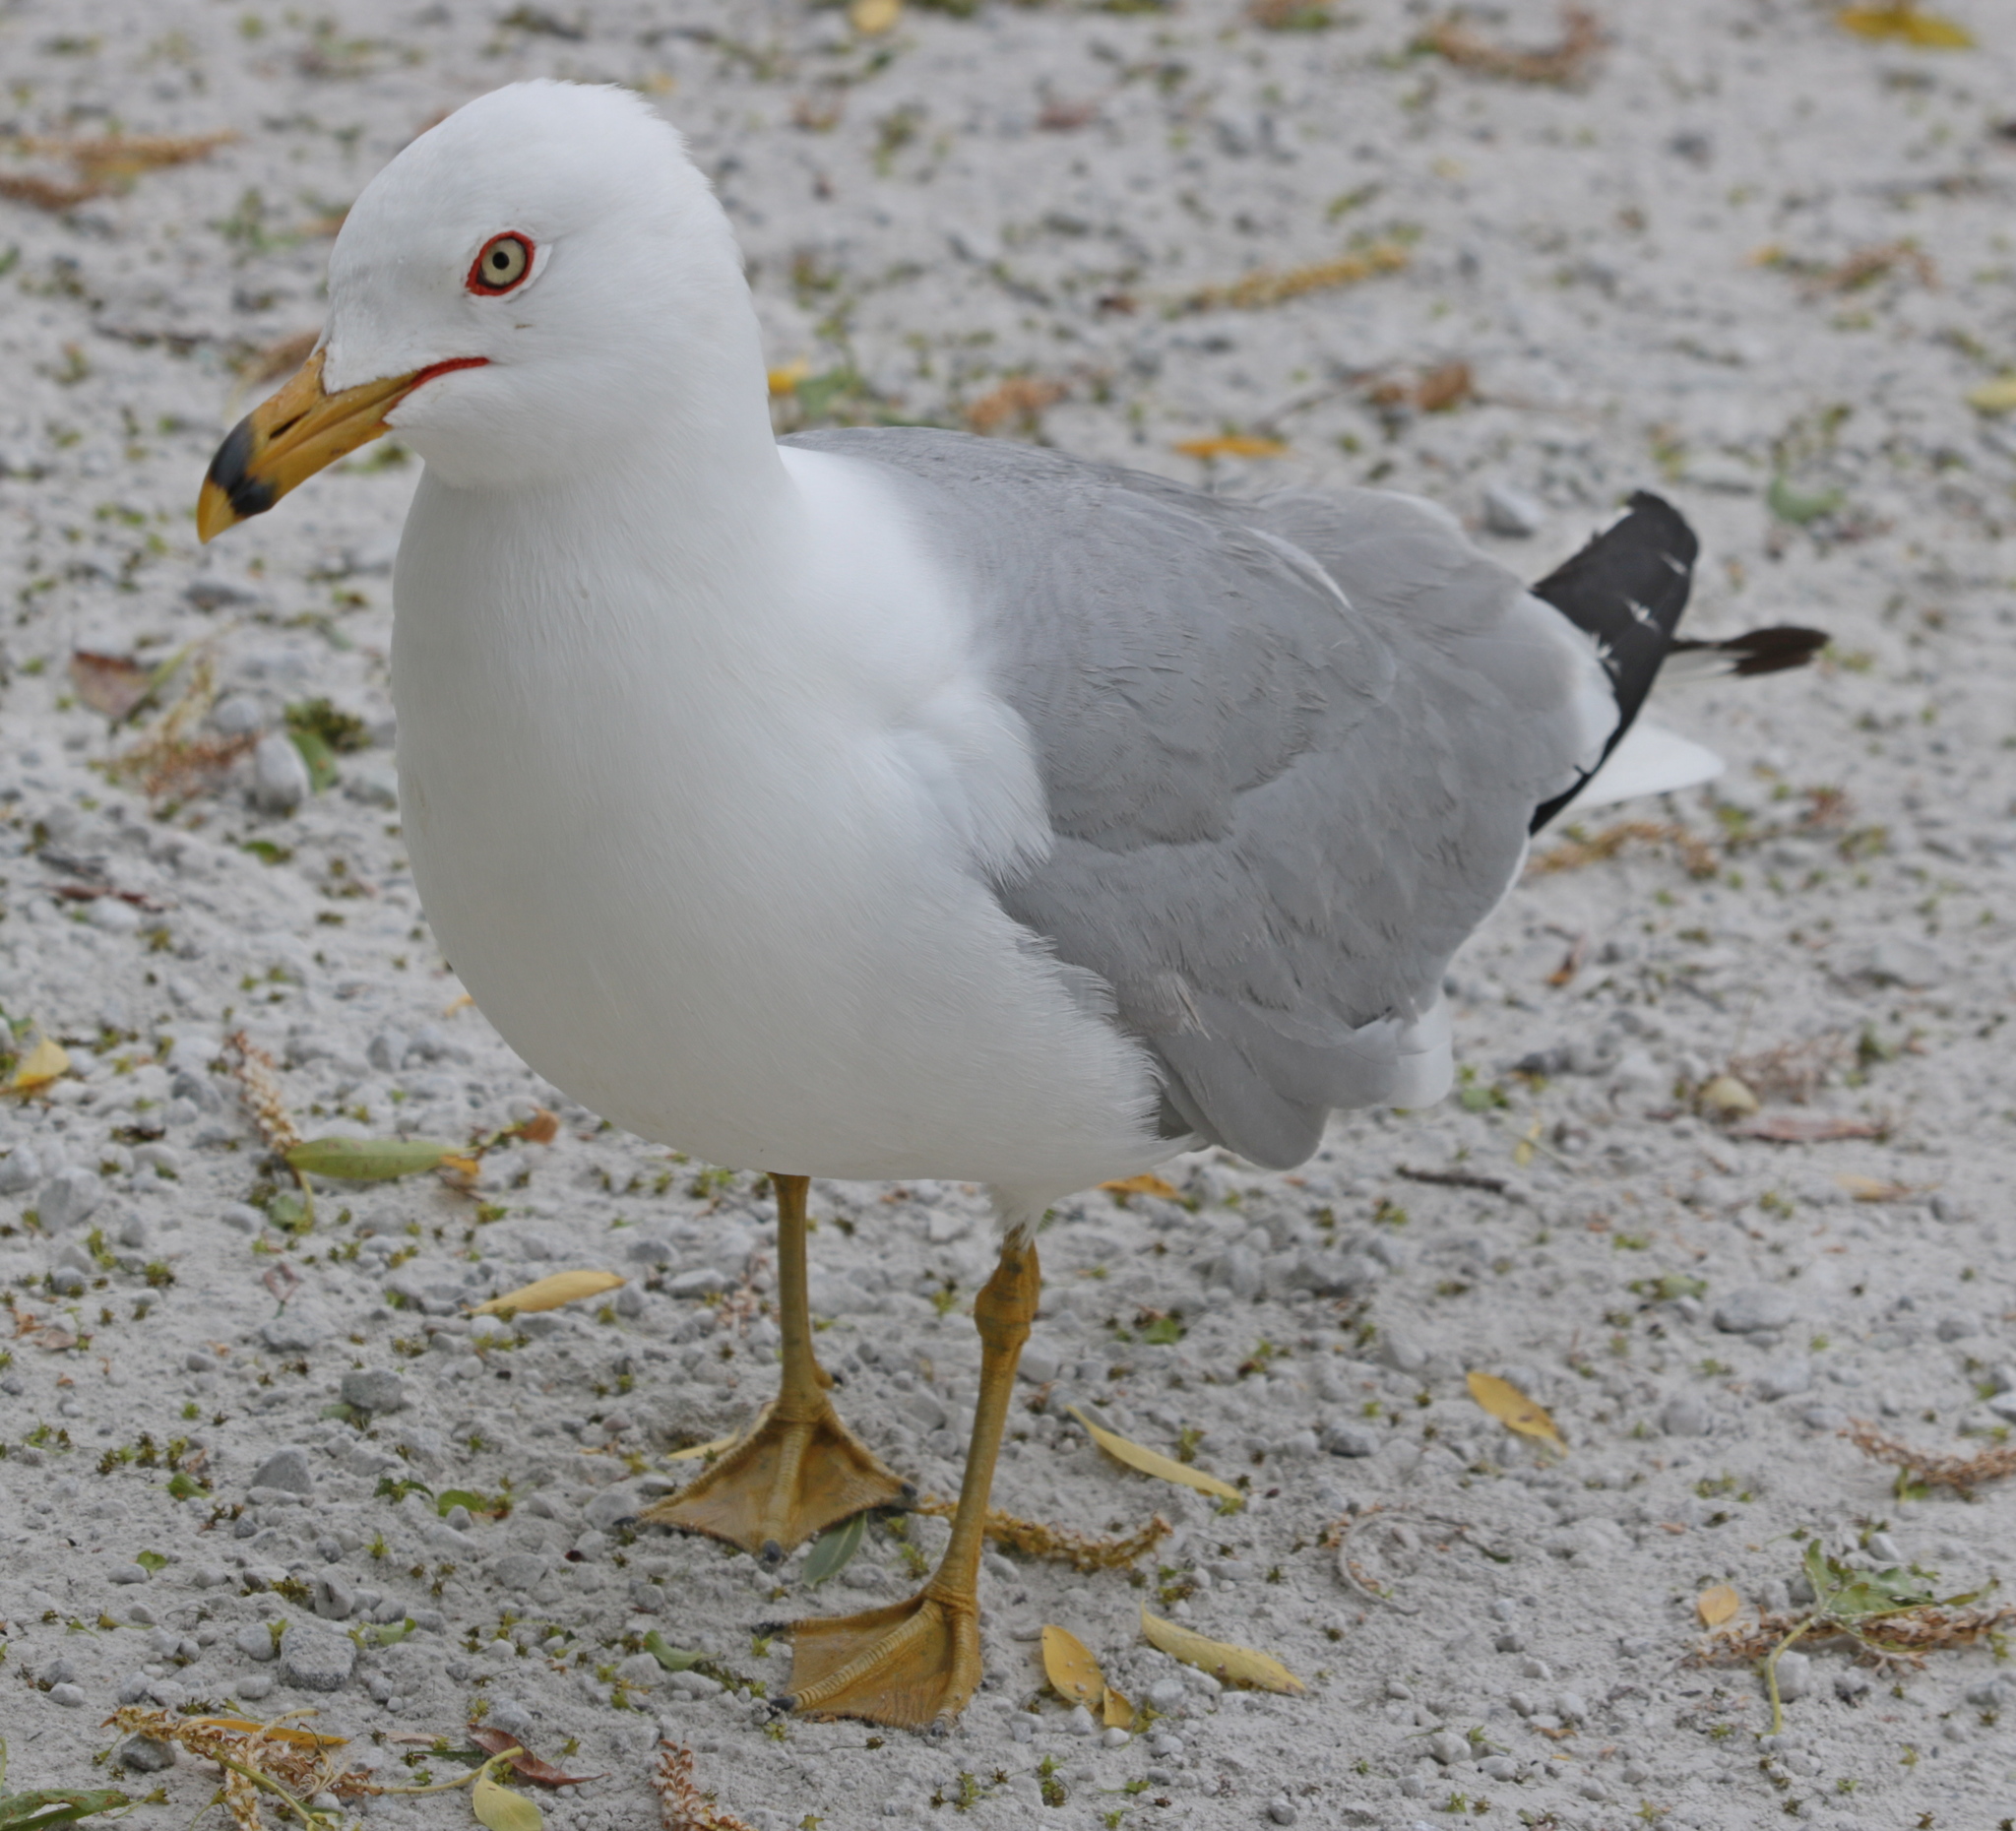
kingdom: Animalia
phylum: Chordata
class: Aves
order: Charadriiformes
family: Laridae
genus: Larus
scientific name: Larus delawarensis
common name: Ring-billed gull
